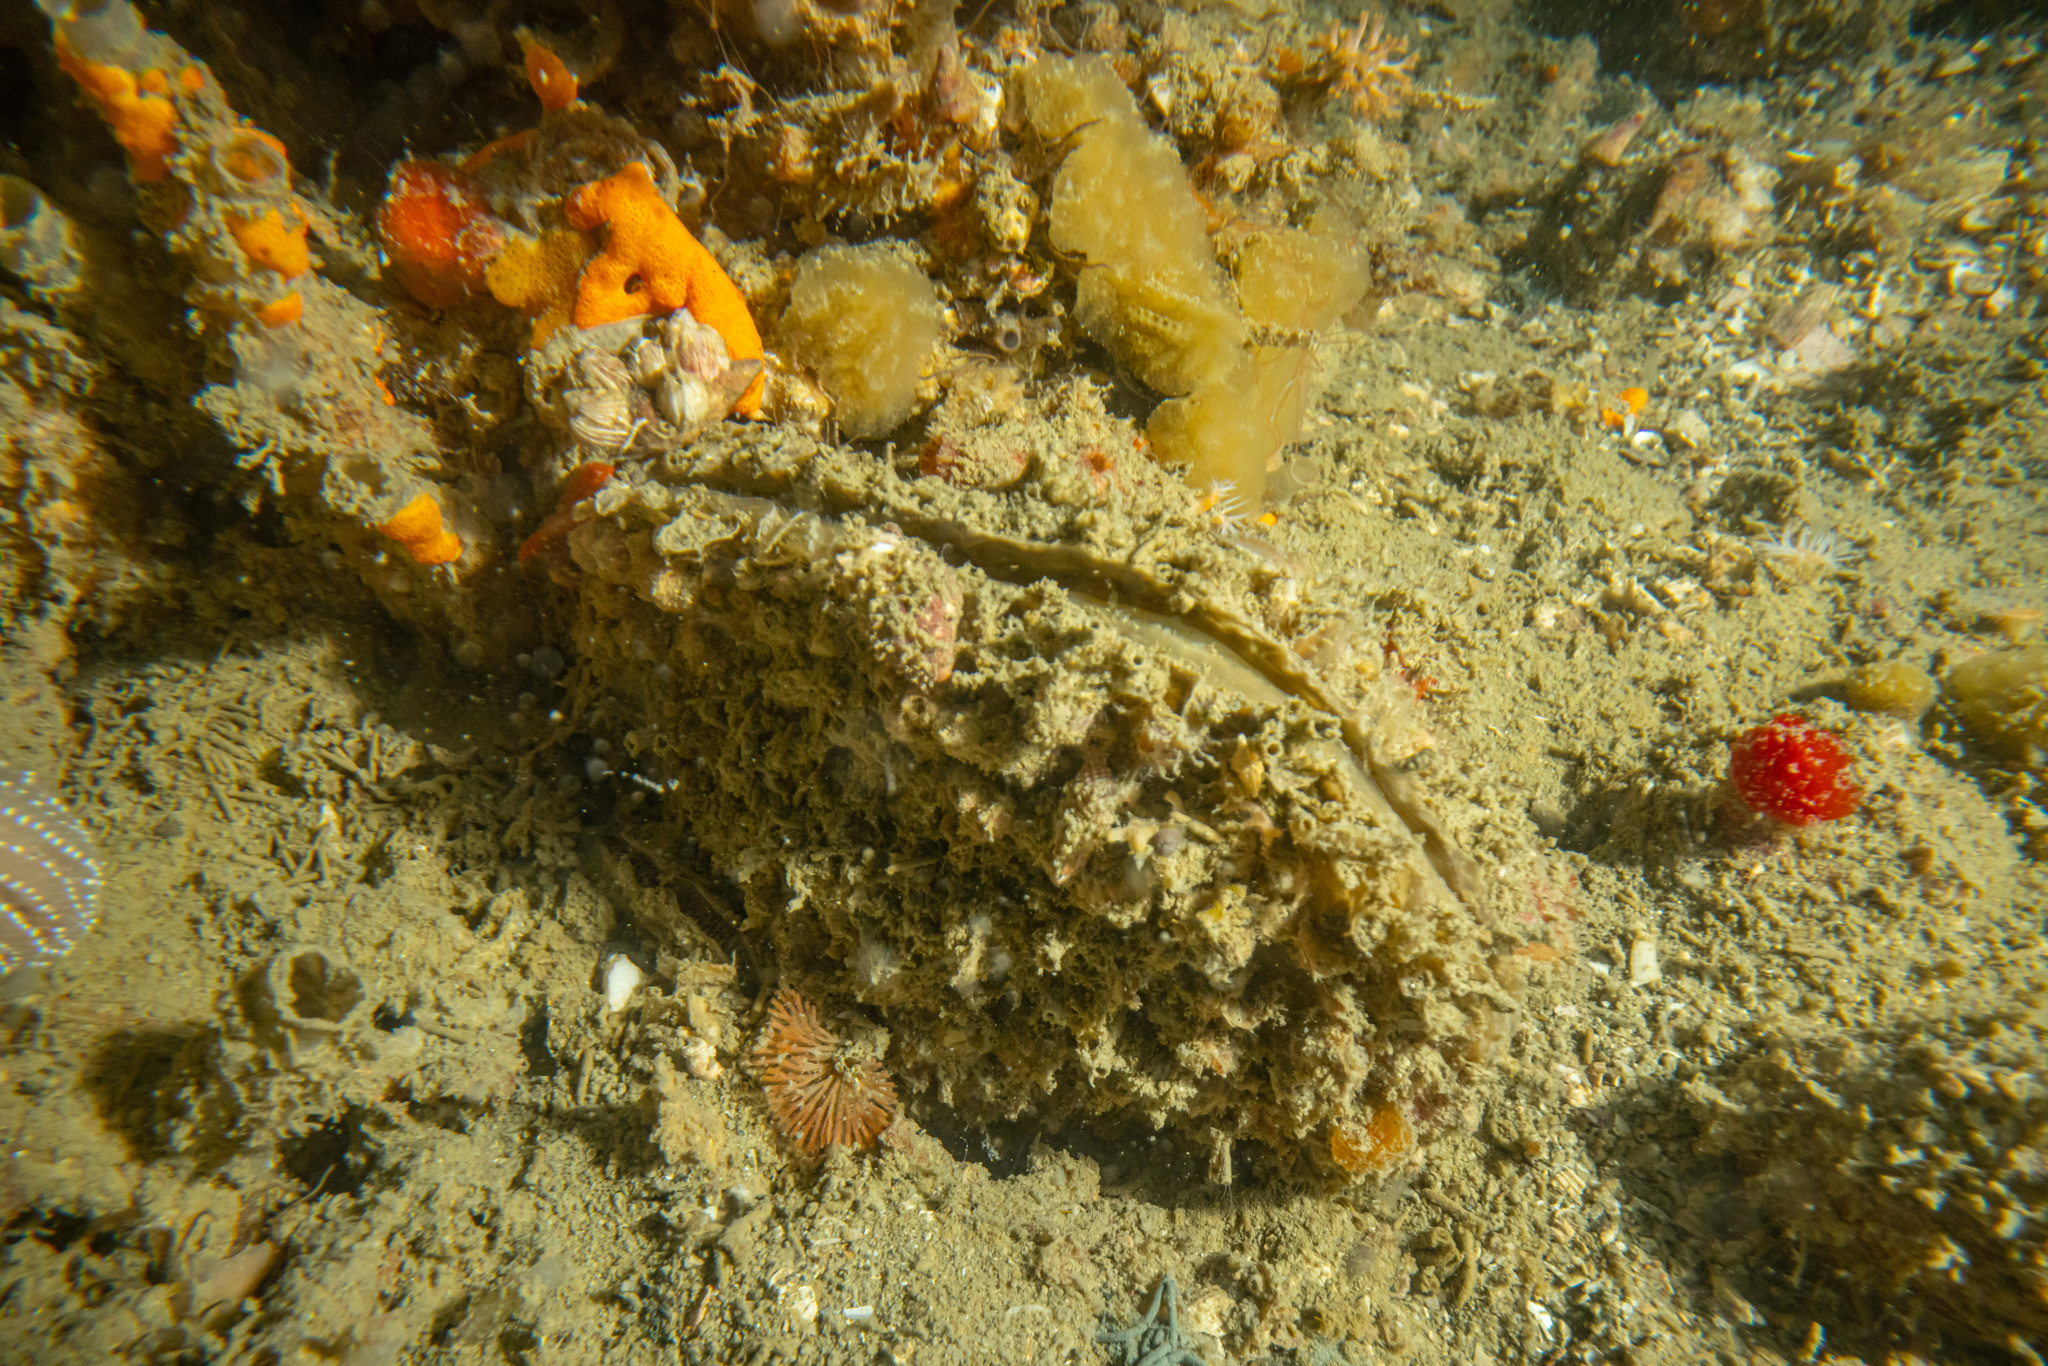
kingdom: Animalia
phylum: Mollusca
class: Bivalvia
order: Ostreida
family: Pinnidae
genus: Atrina
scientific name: Atrina zelandica
